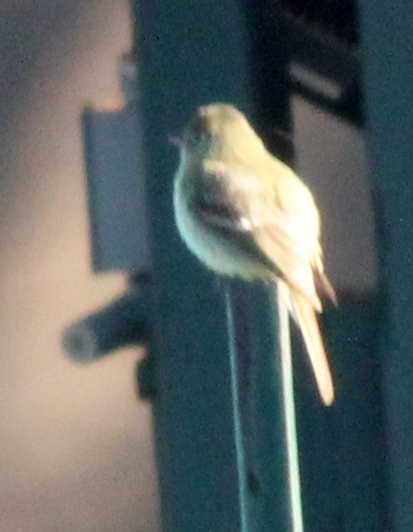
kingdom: Animalia
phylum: Chordata
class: Aves
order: Passeriformes
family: Tyrannidae
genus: Contopus
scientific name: Contopus sordidulus
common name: Western wood-pewee
